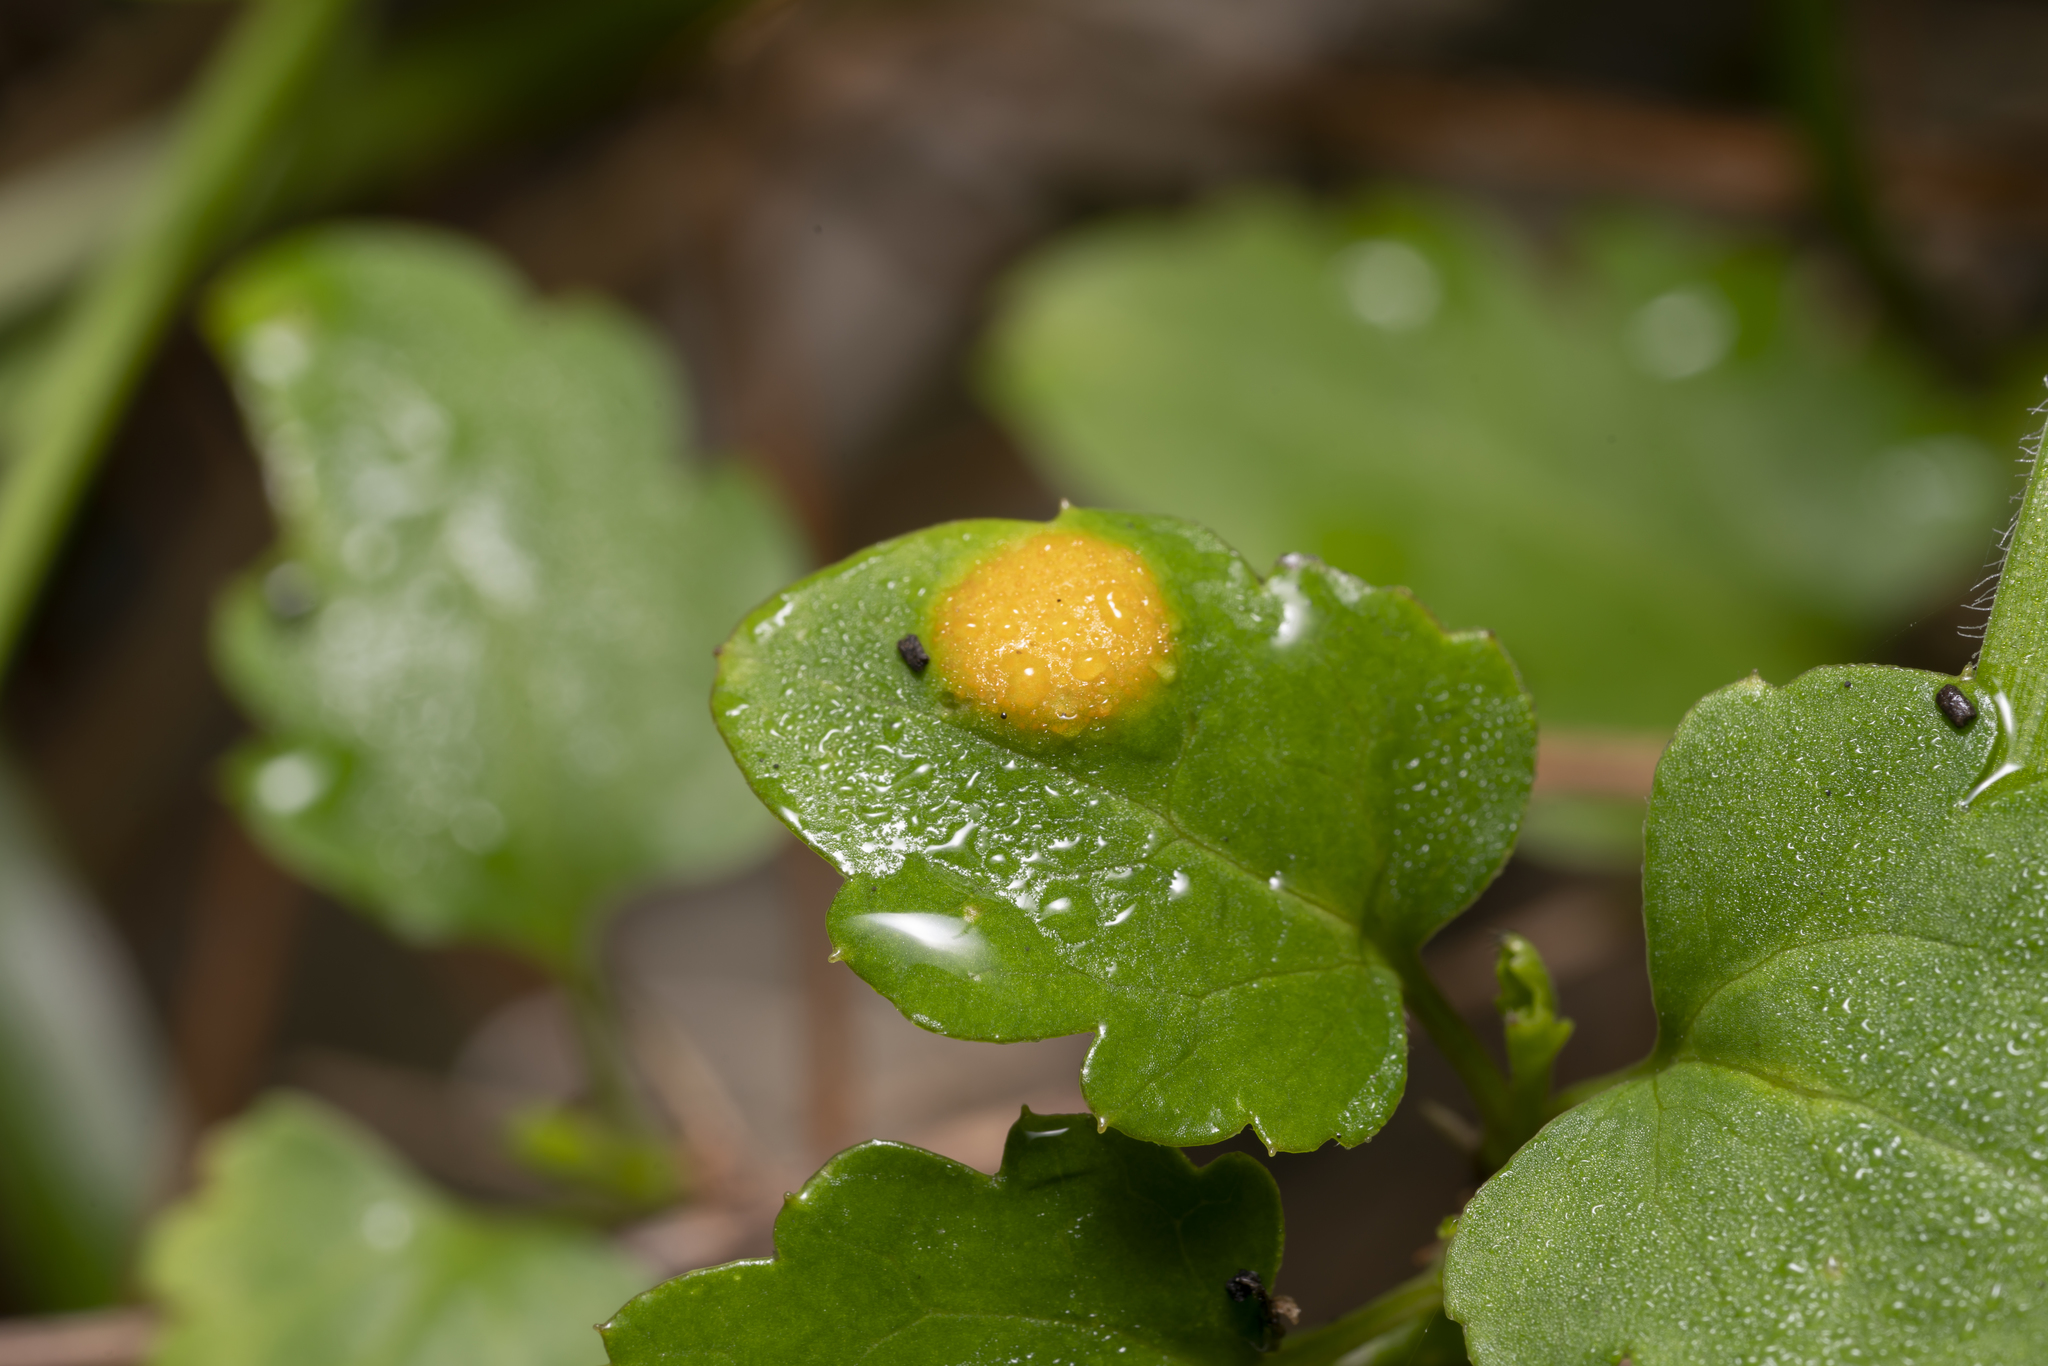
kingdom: Fungi
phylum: Basidiomycota
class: Pucciniomycetes
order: Pucciniales
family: Pucciniaceae
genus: Puccinia
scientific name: Puccinia madritensis
